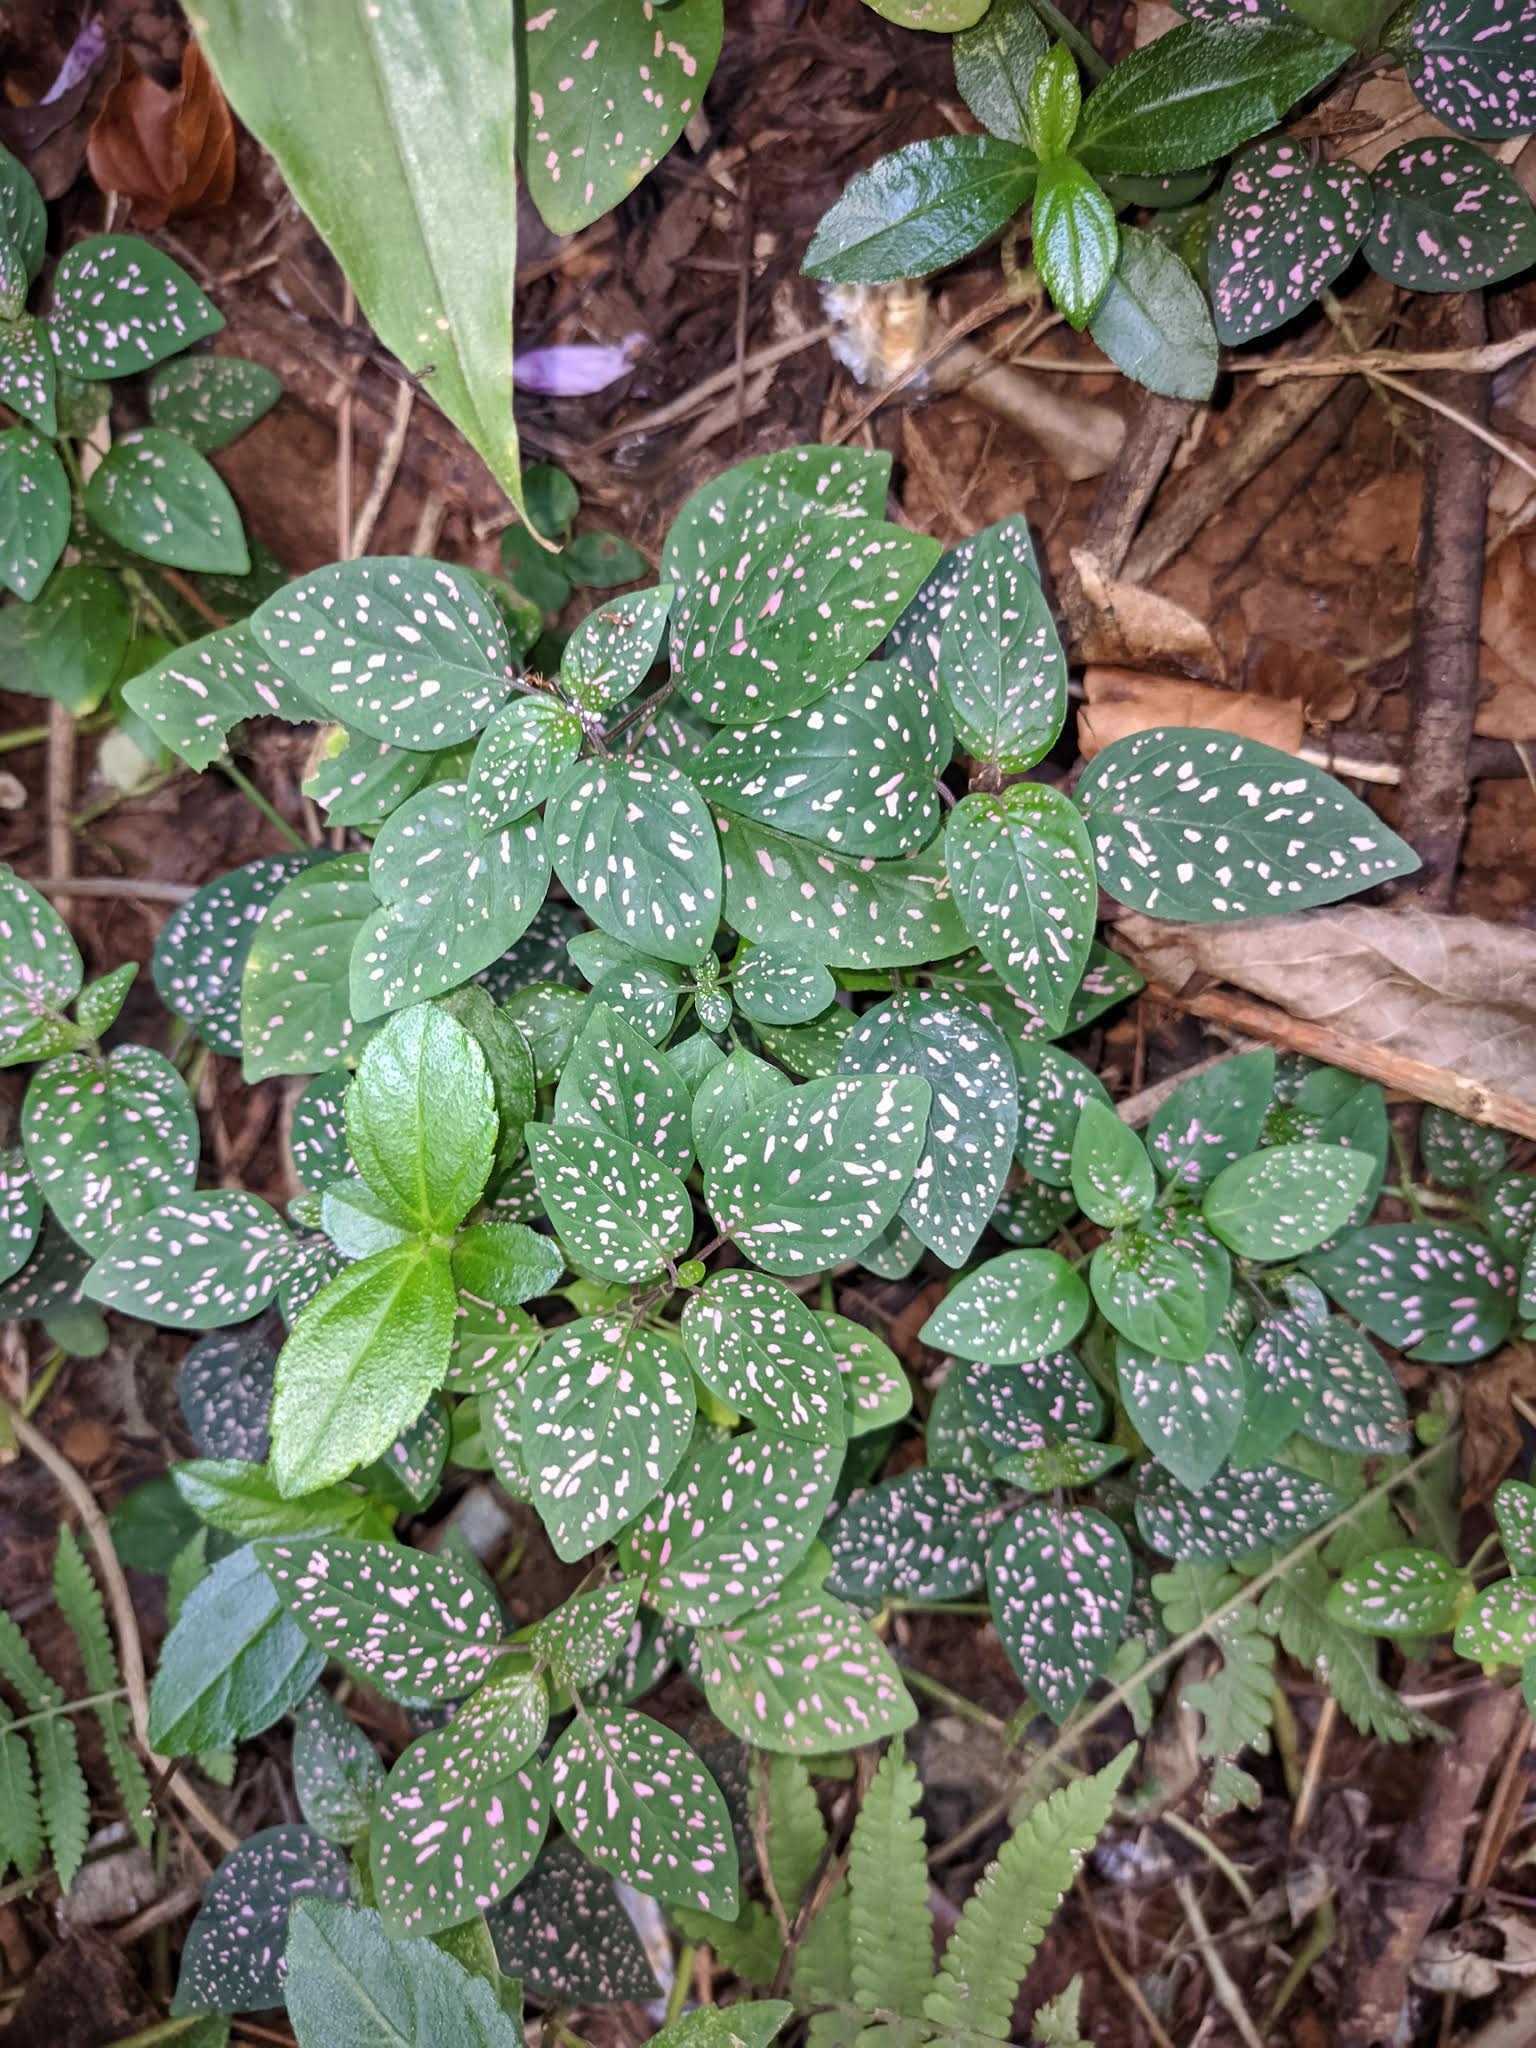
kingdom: Plantae
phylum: Tracheophyta
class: Magnoliopsida
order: Lamiales
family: Acanthaceae
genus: Hypoestes
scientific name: Hypoestes phyllostachya
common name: Polkadot-plant
